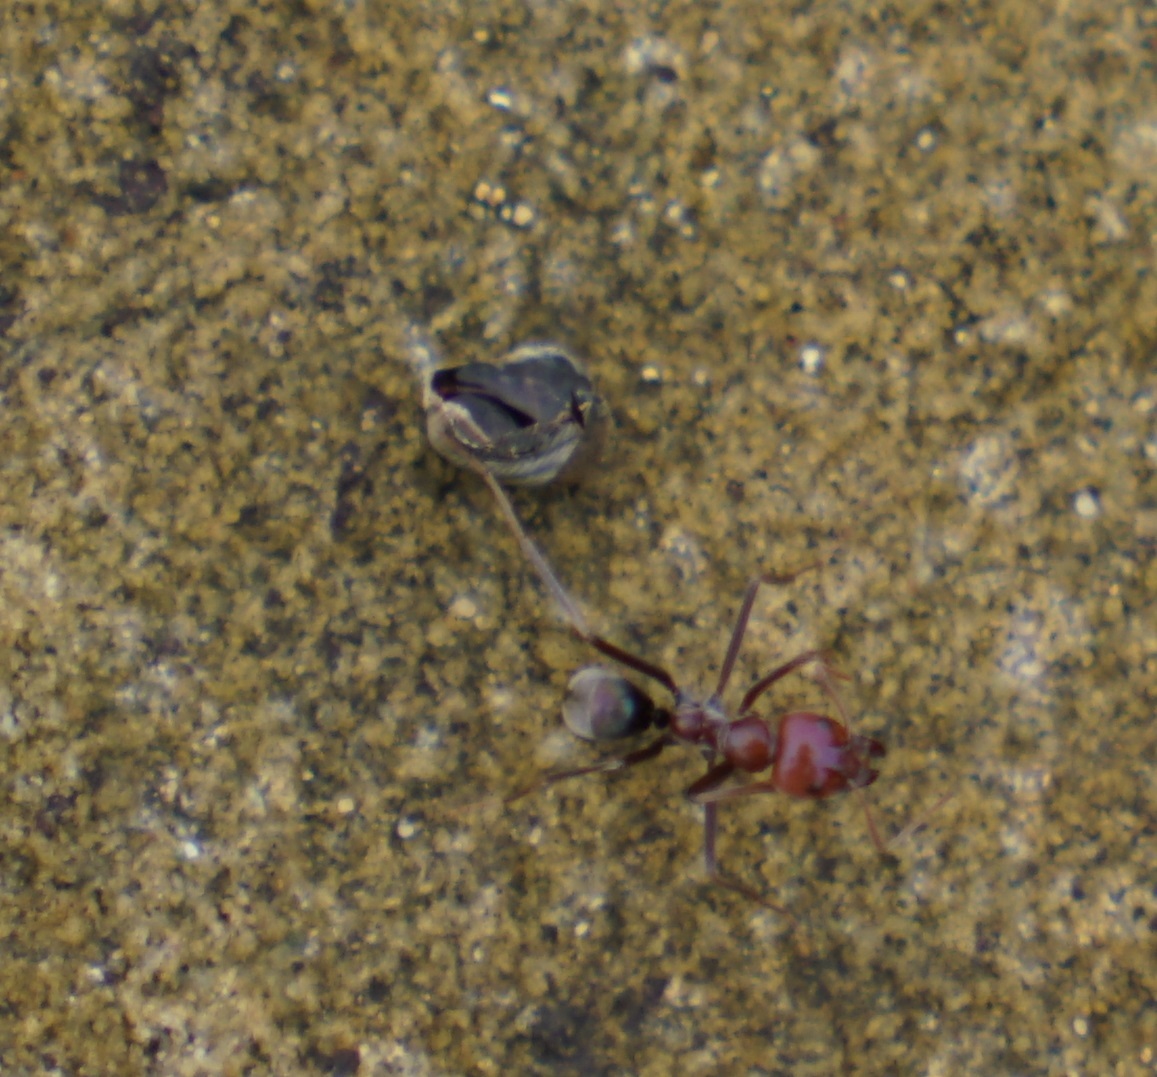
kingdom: Animalia
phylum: Arthropoda
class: Insecta
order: Hymenoptera
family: Formicidae
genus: Iridomyrmex
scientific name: Iridomyrmex purpureus
